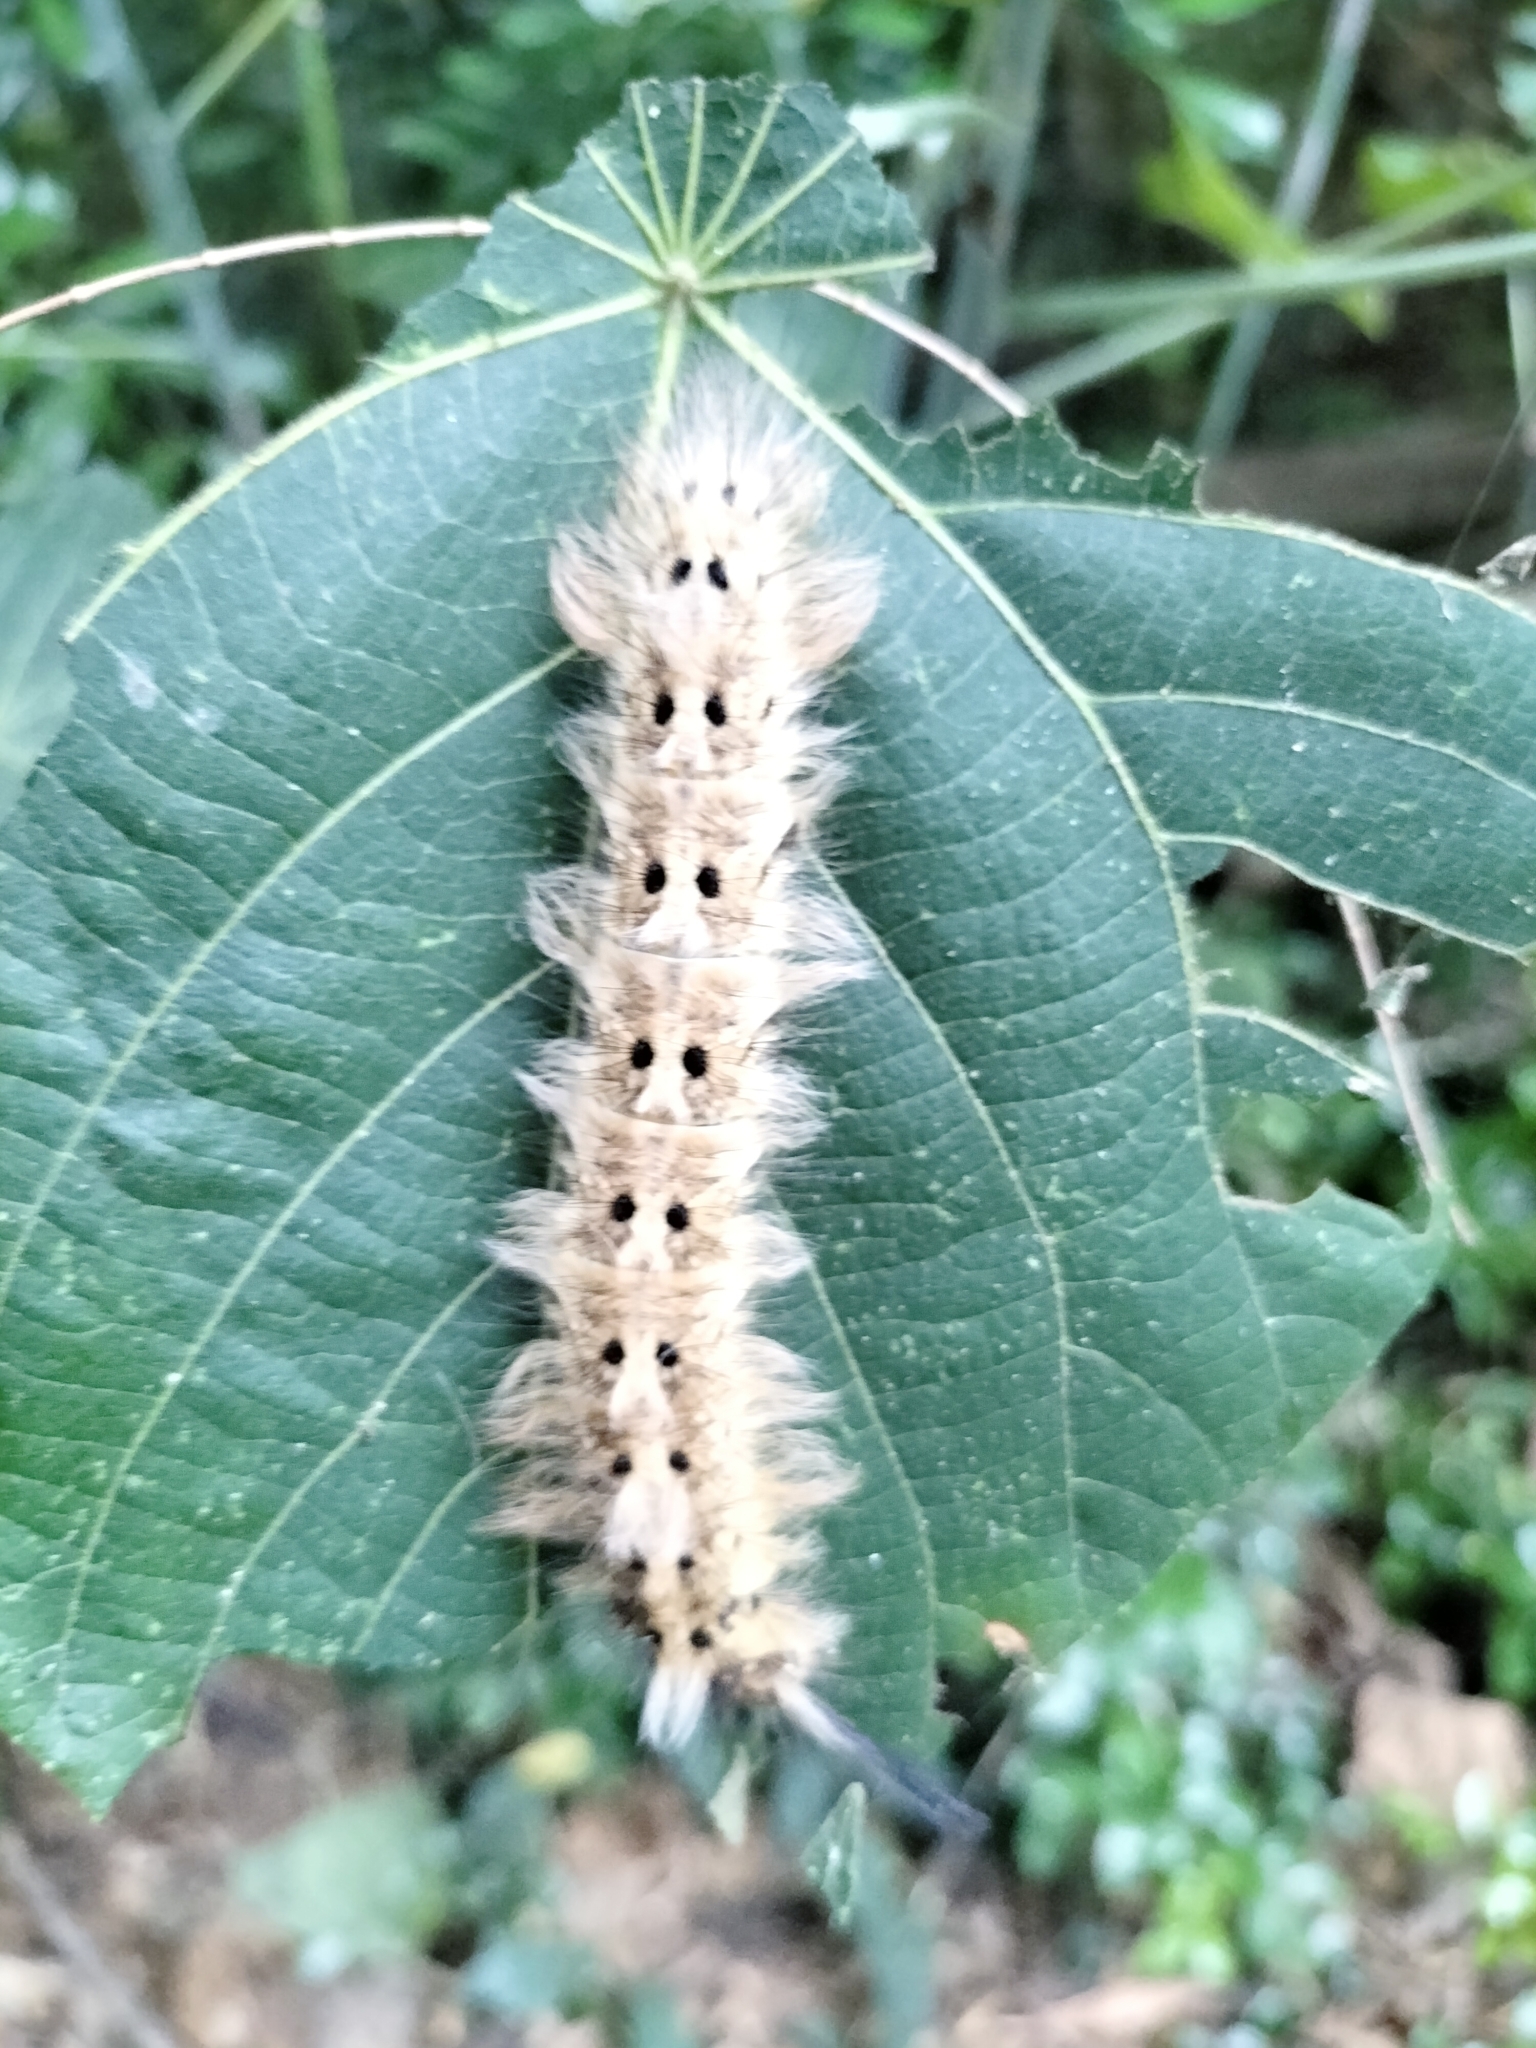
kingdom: Animalia
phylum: Arthropoda
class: Insecta
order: Lepidoptera
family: Lasiocampidae
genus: Trabala
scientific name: Trabala vishnou
